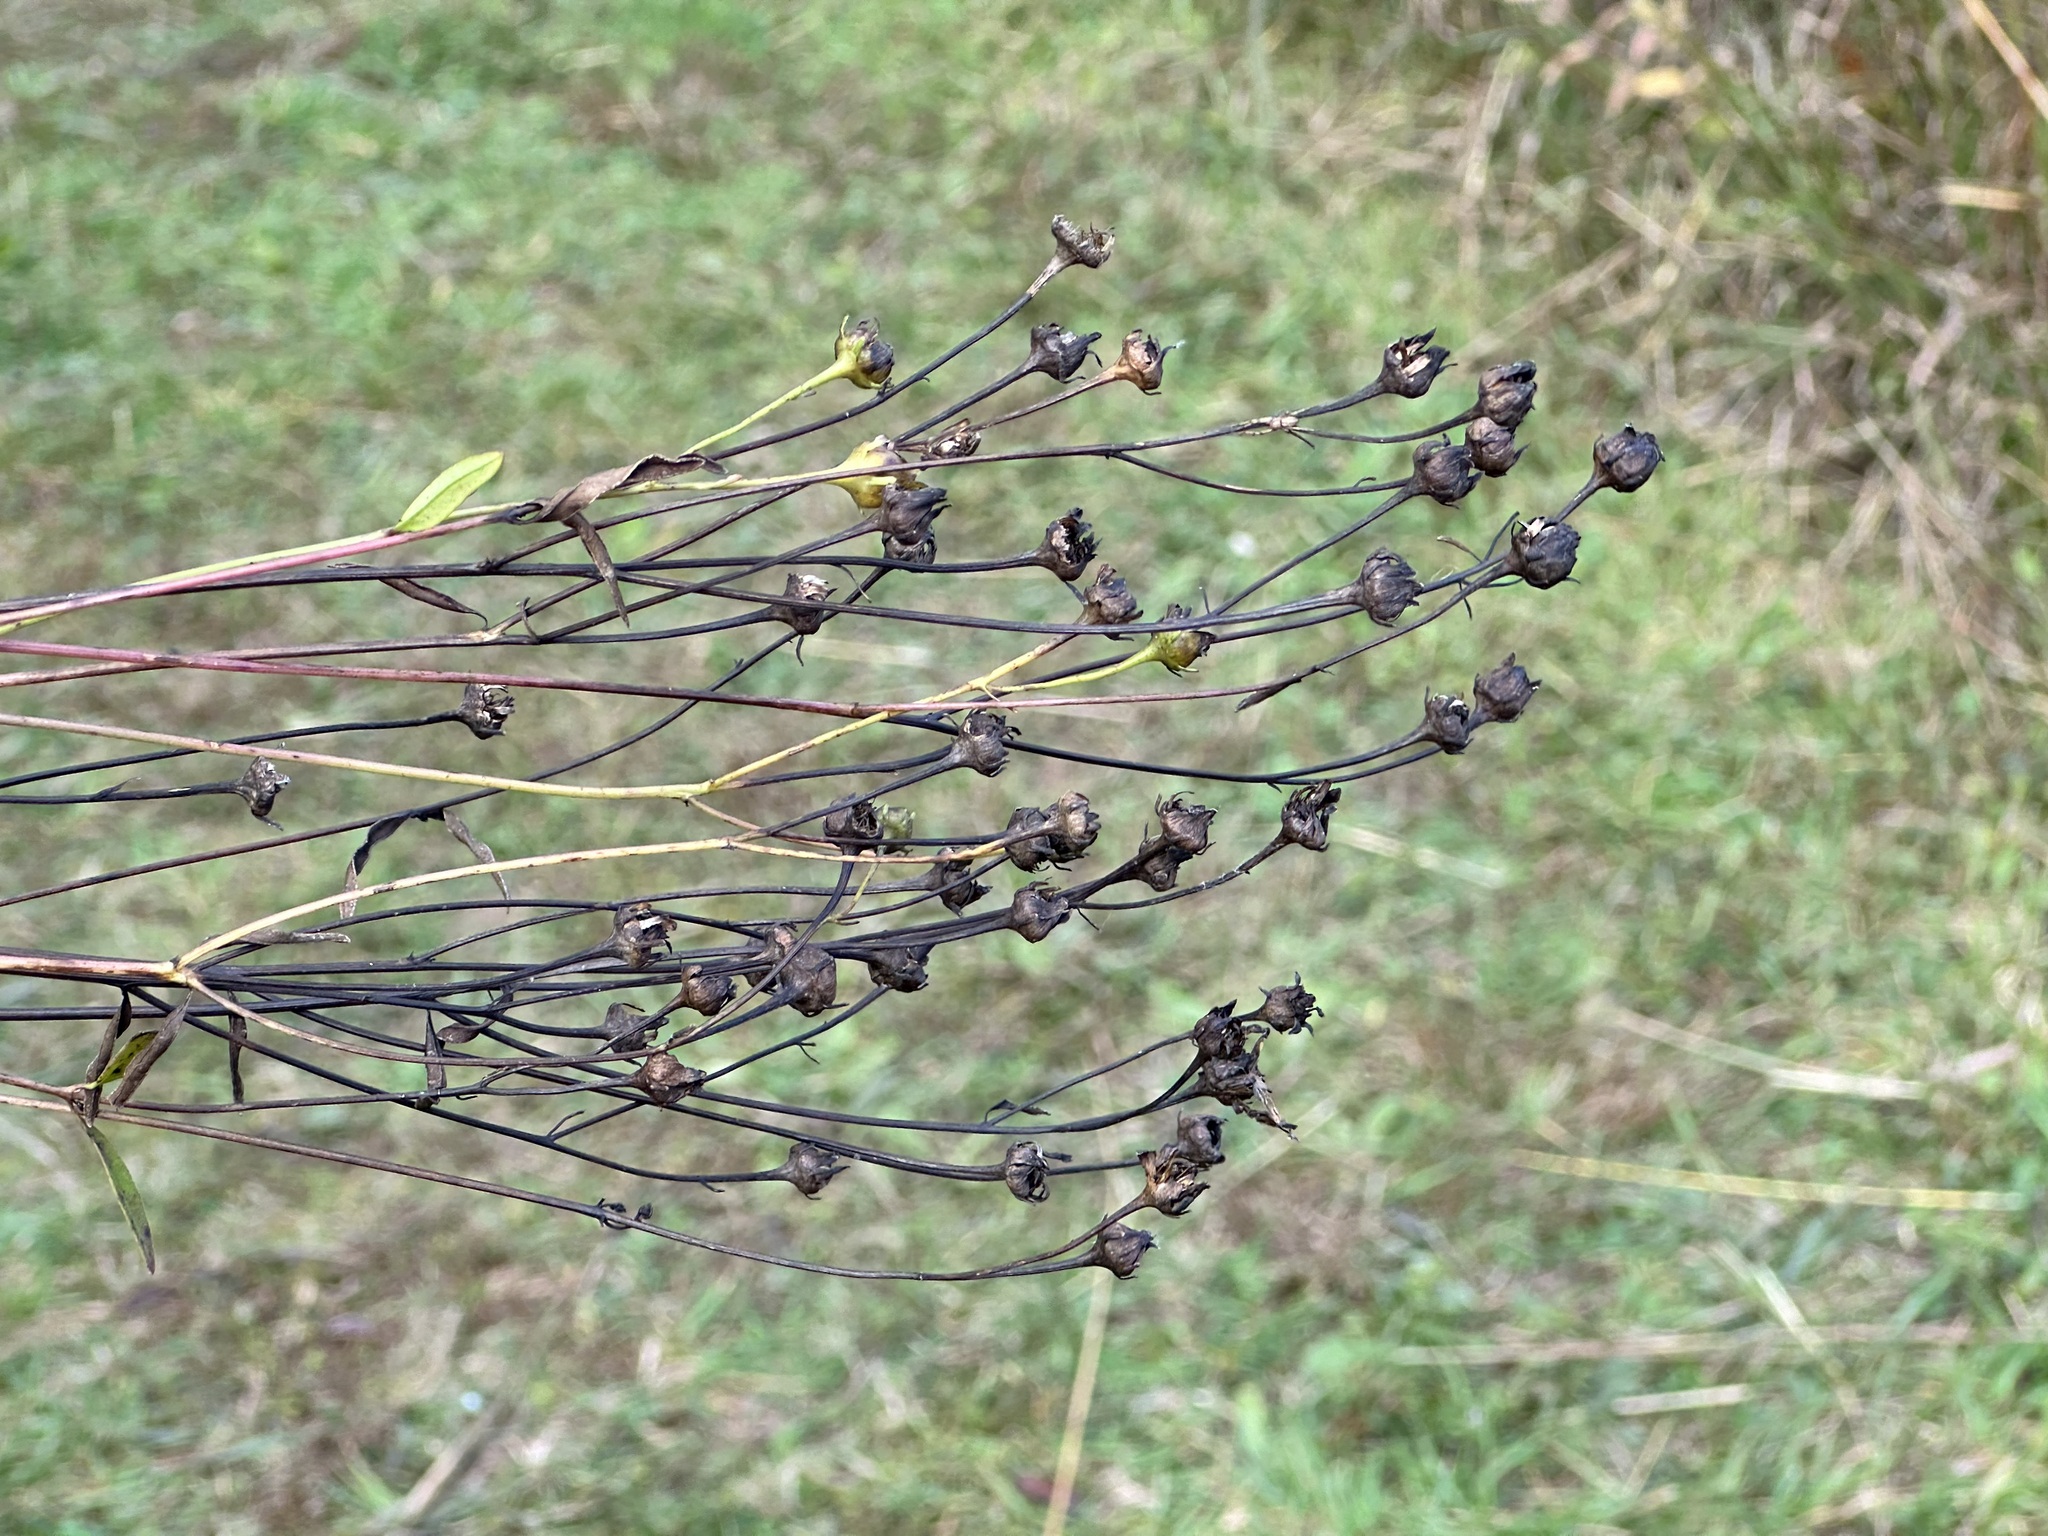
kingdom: Plantae
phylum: Tracheophyta
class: Magnoliopsida
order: Asterales
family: Asteraceae
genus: Coreopsis
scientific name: Coreopsis tripteris
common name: Tall coreopsis
